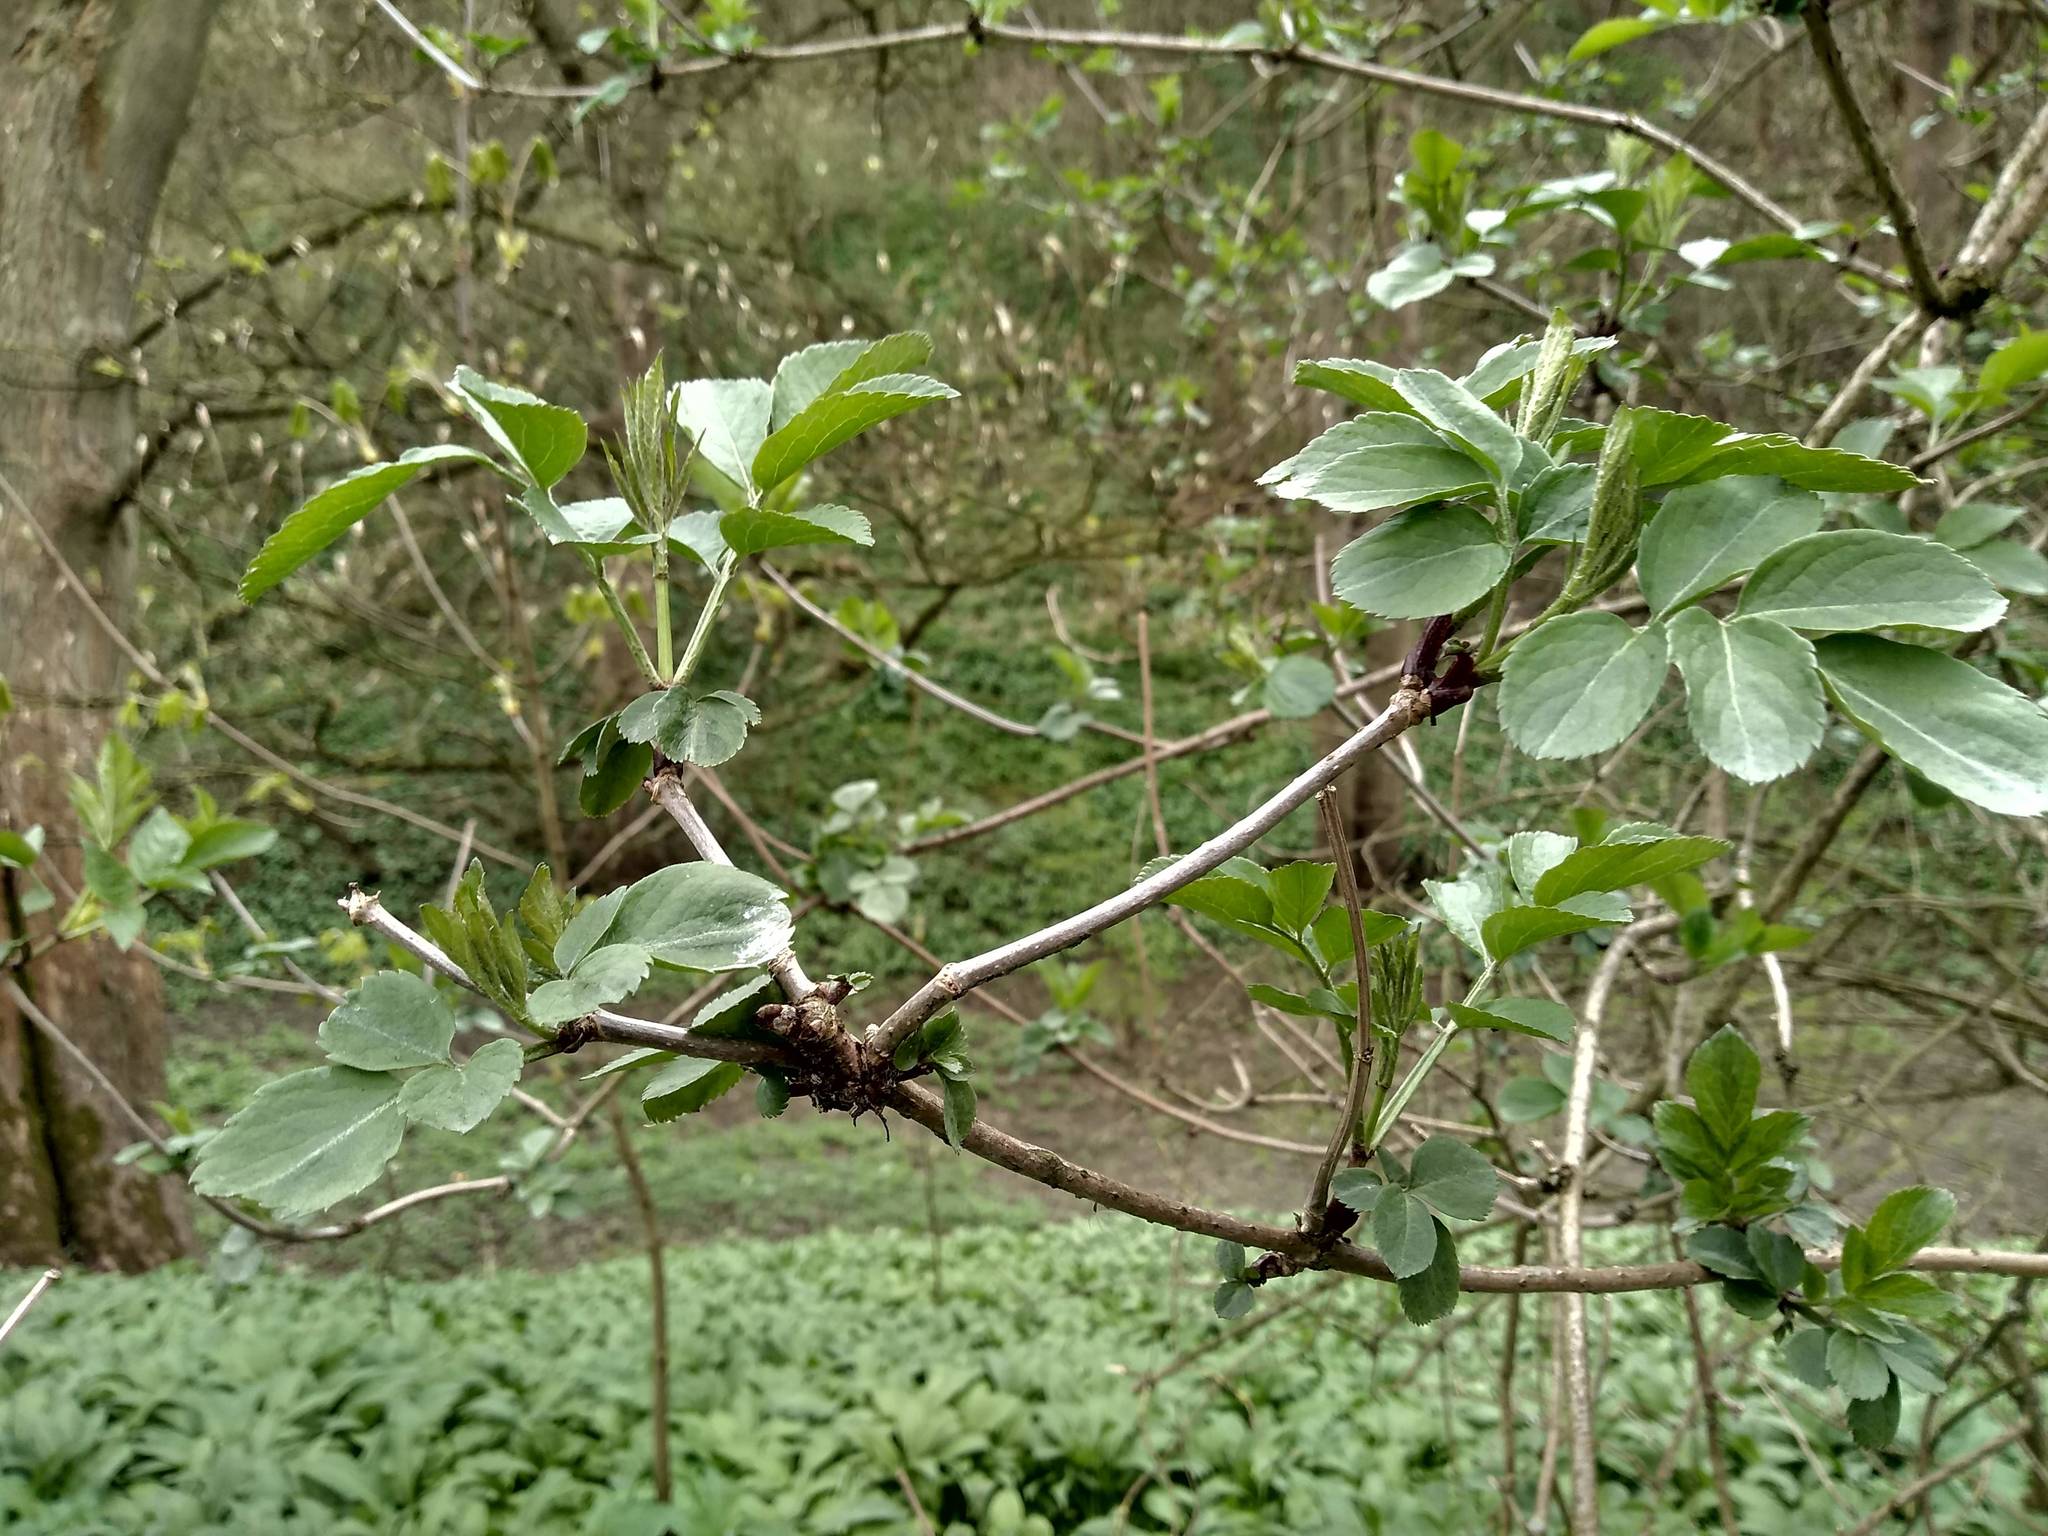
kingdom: Plantae
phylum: Tracheophyta
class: Magnoliopsida
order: Dipsacales
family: Viburnaceae
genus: Sambucus
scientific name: Sambucus nigra
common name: Elder
